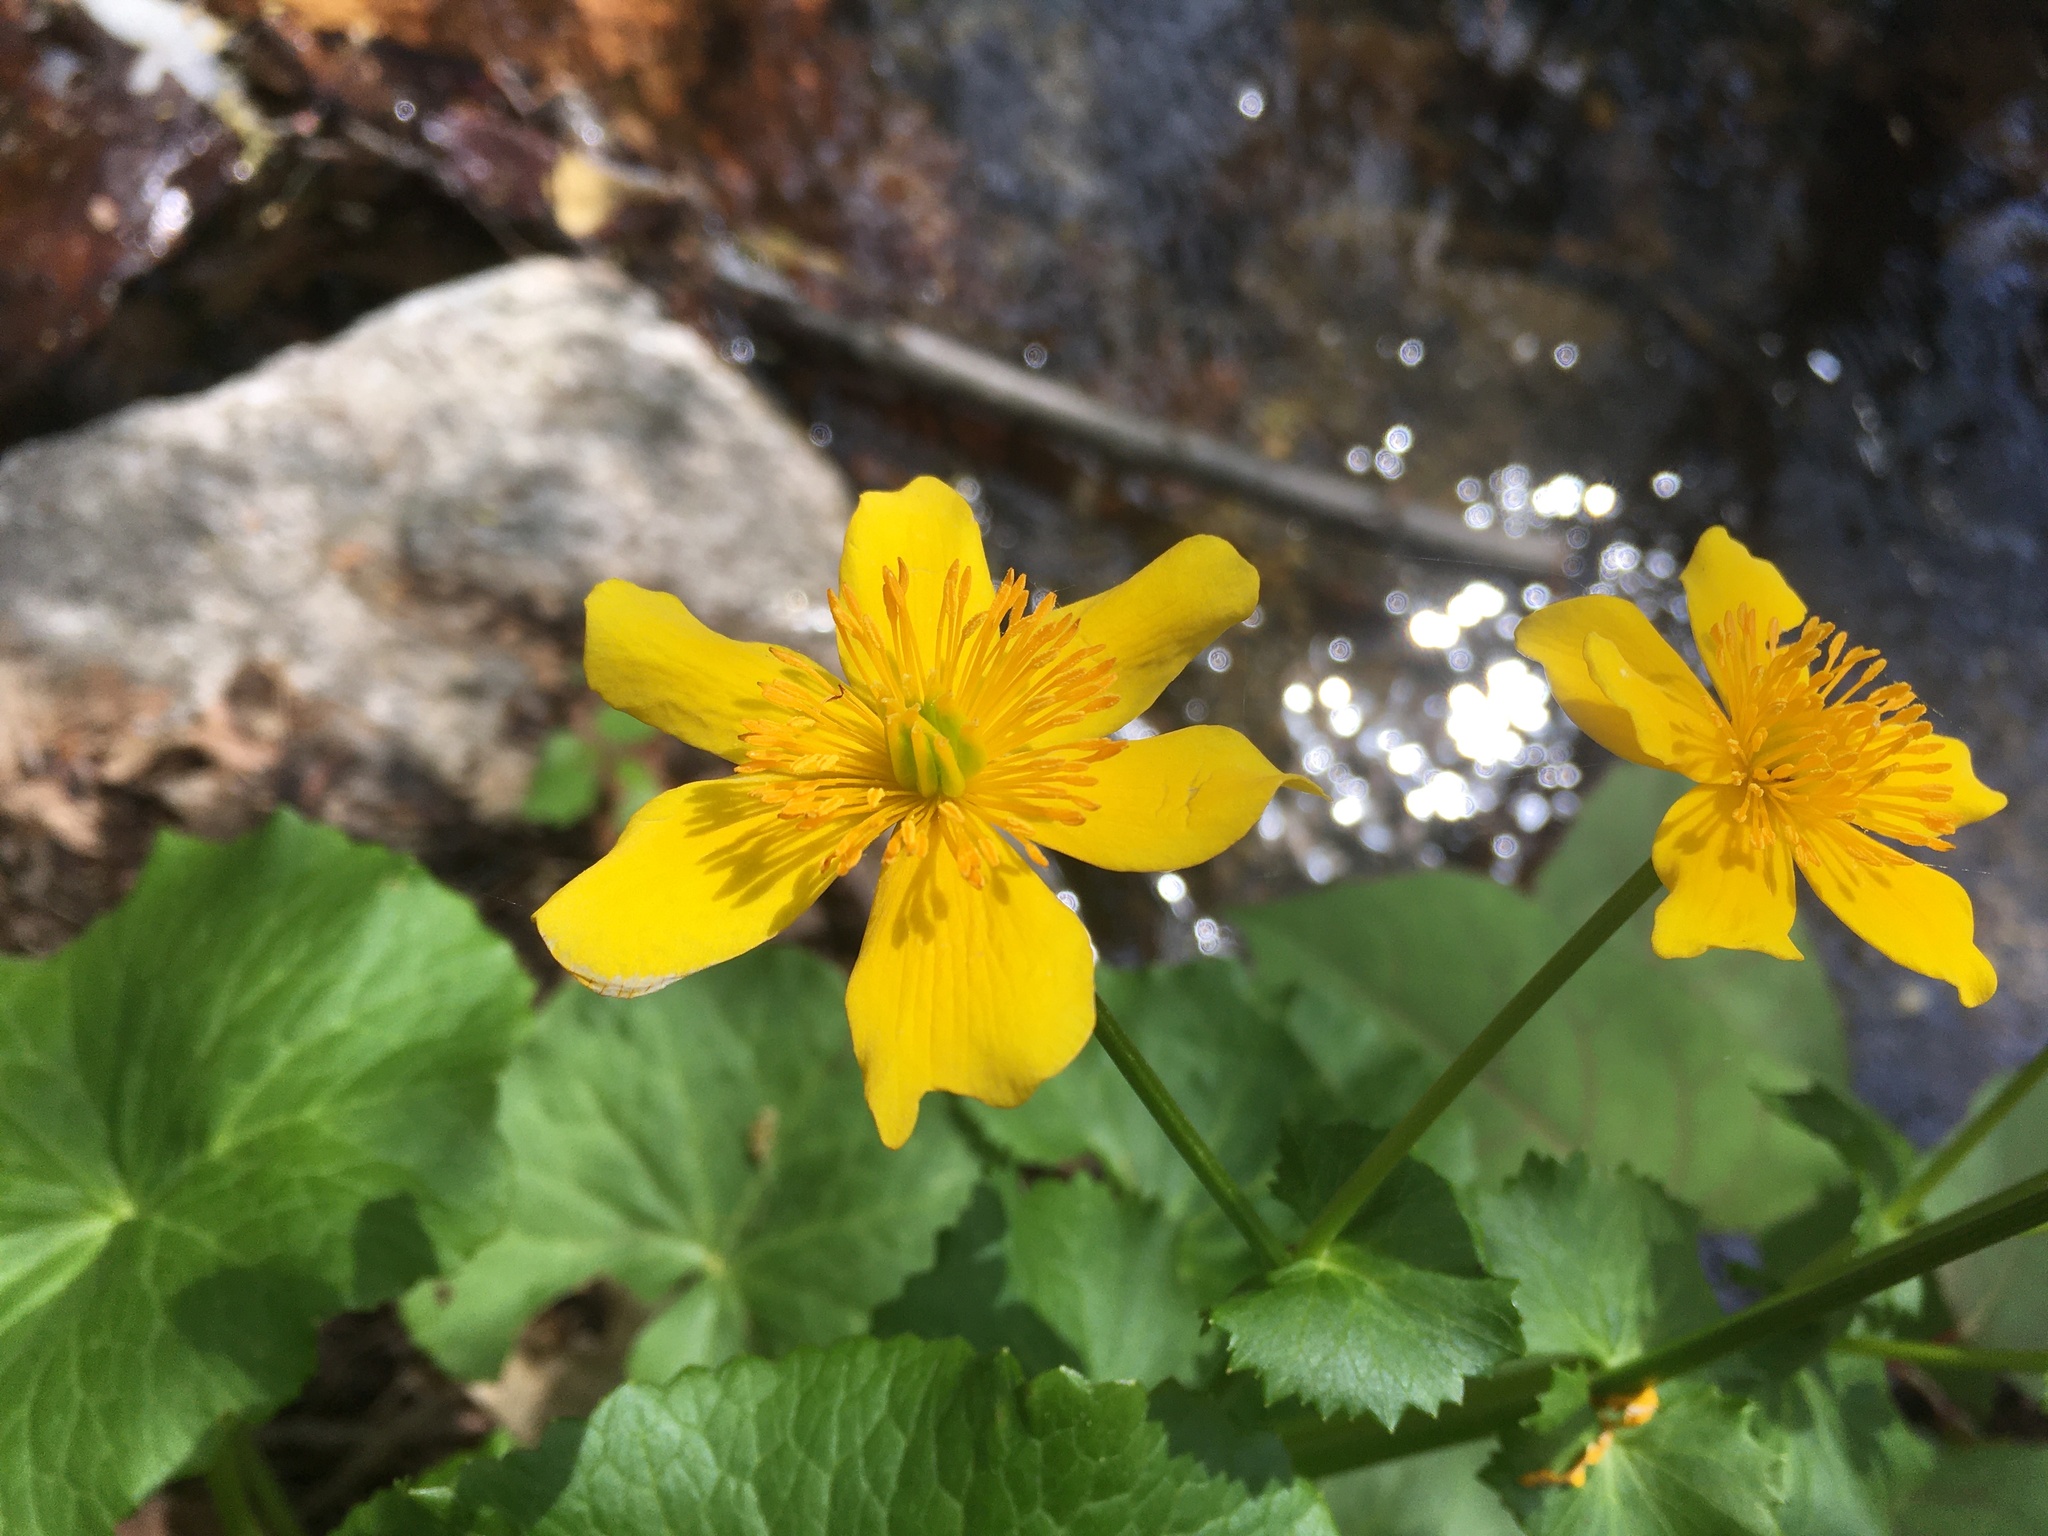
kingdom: Plantae
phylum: Tracheophyta
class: Magnoliopsida
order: Ranunculales
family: Ranunculaceae
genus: Caltha
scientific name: Caltha palustris
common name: Marsh marigold
